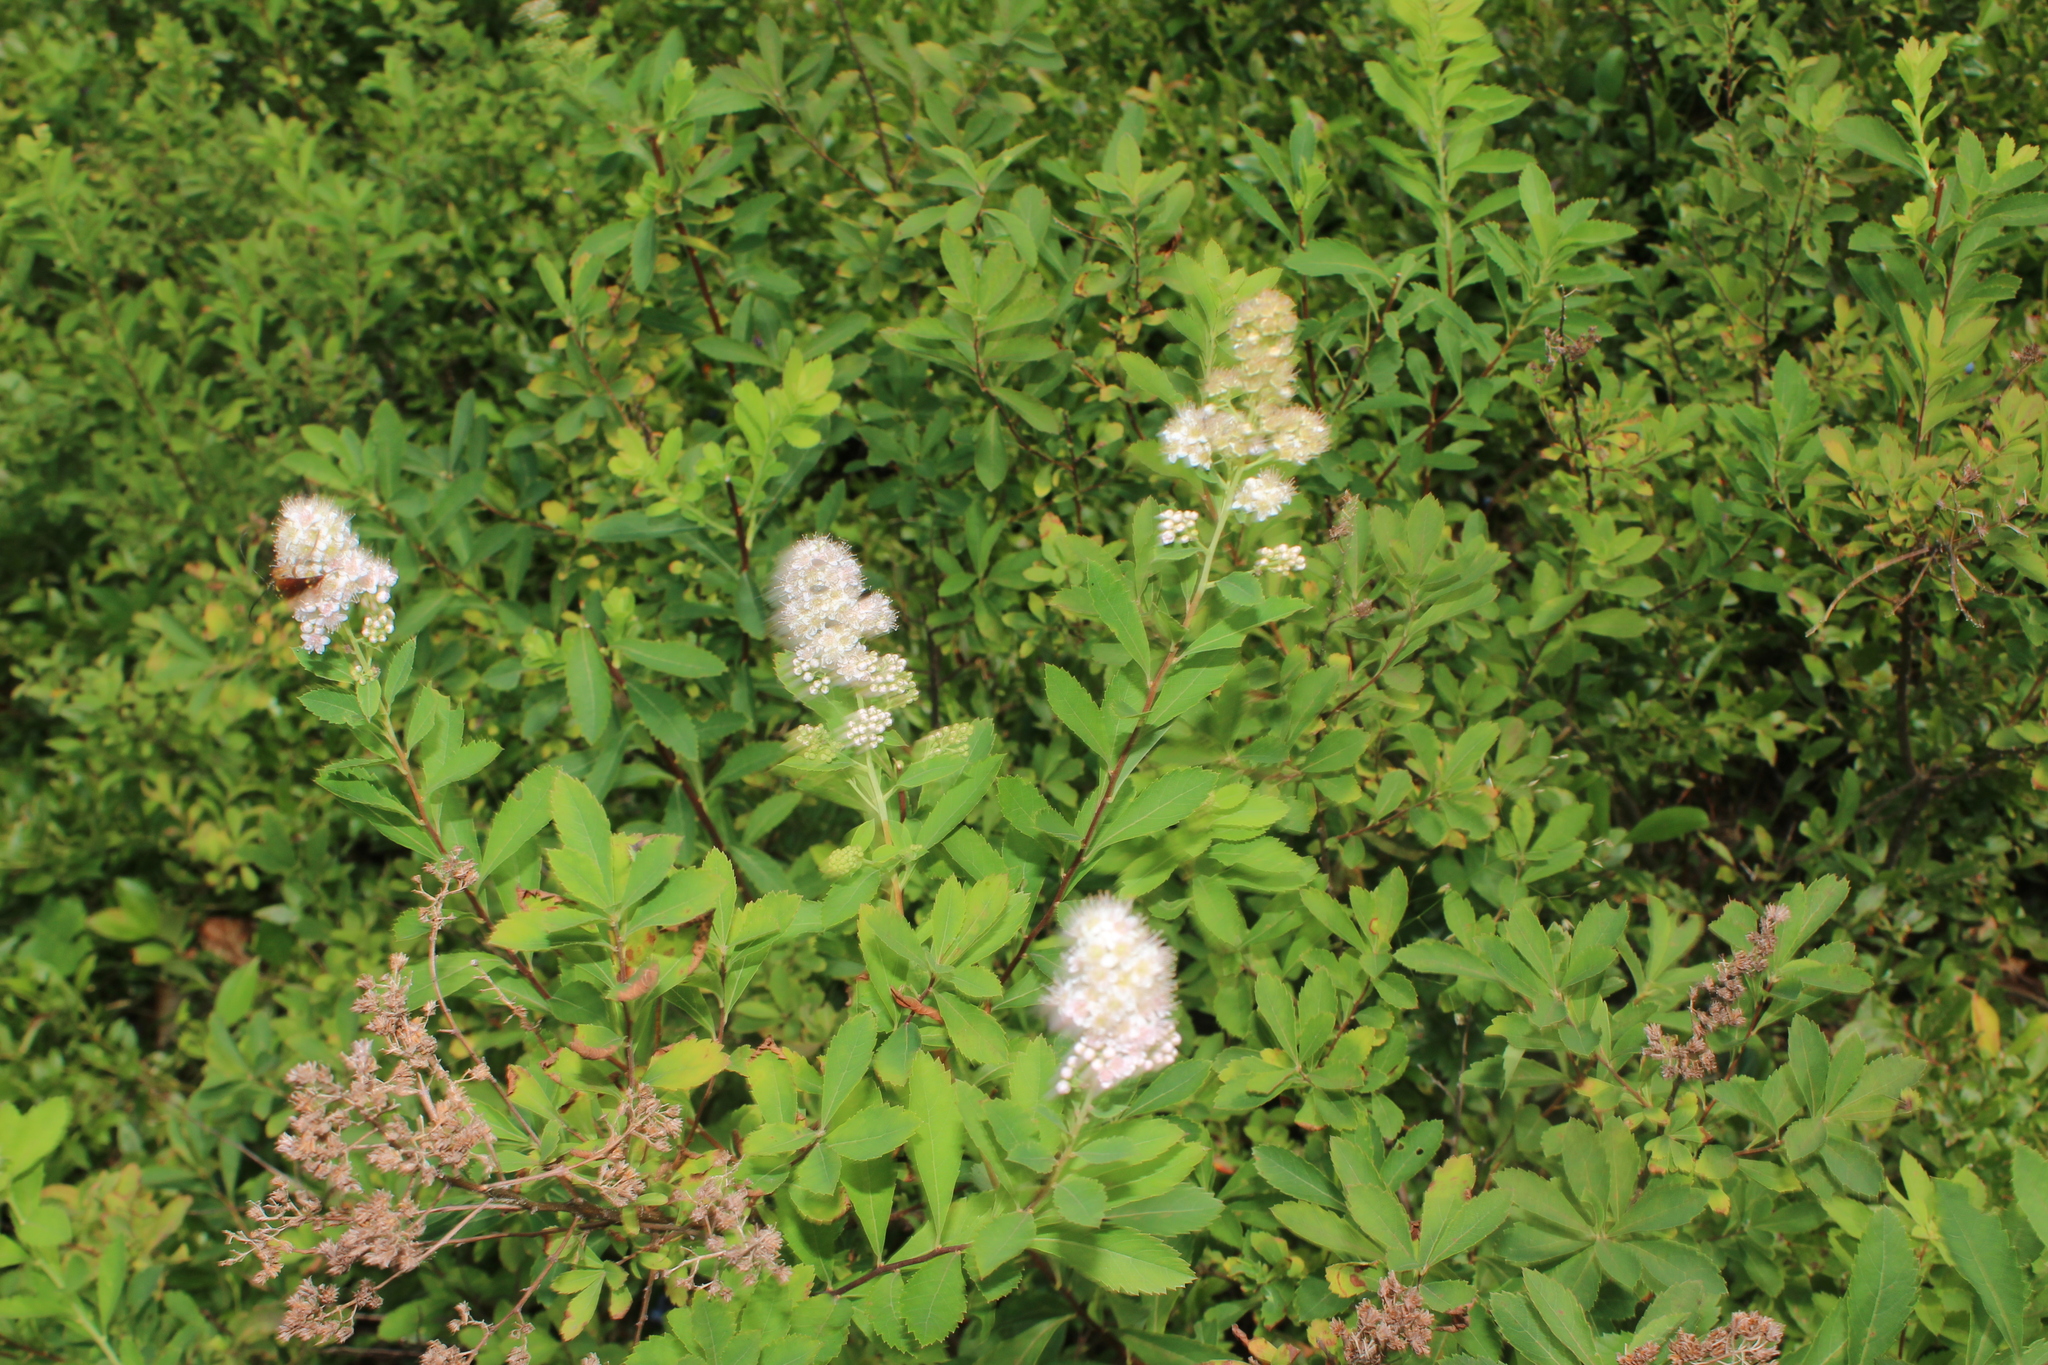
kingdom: Plantae
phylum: Tracheophyta
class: Magnoliopsida
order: Rosales
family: Rosaceae
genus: Spiraea
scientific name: Spiraea alba
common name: Pale bridewort
